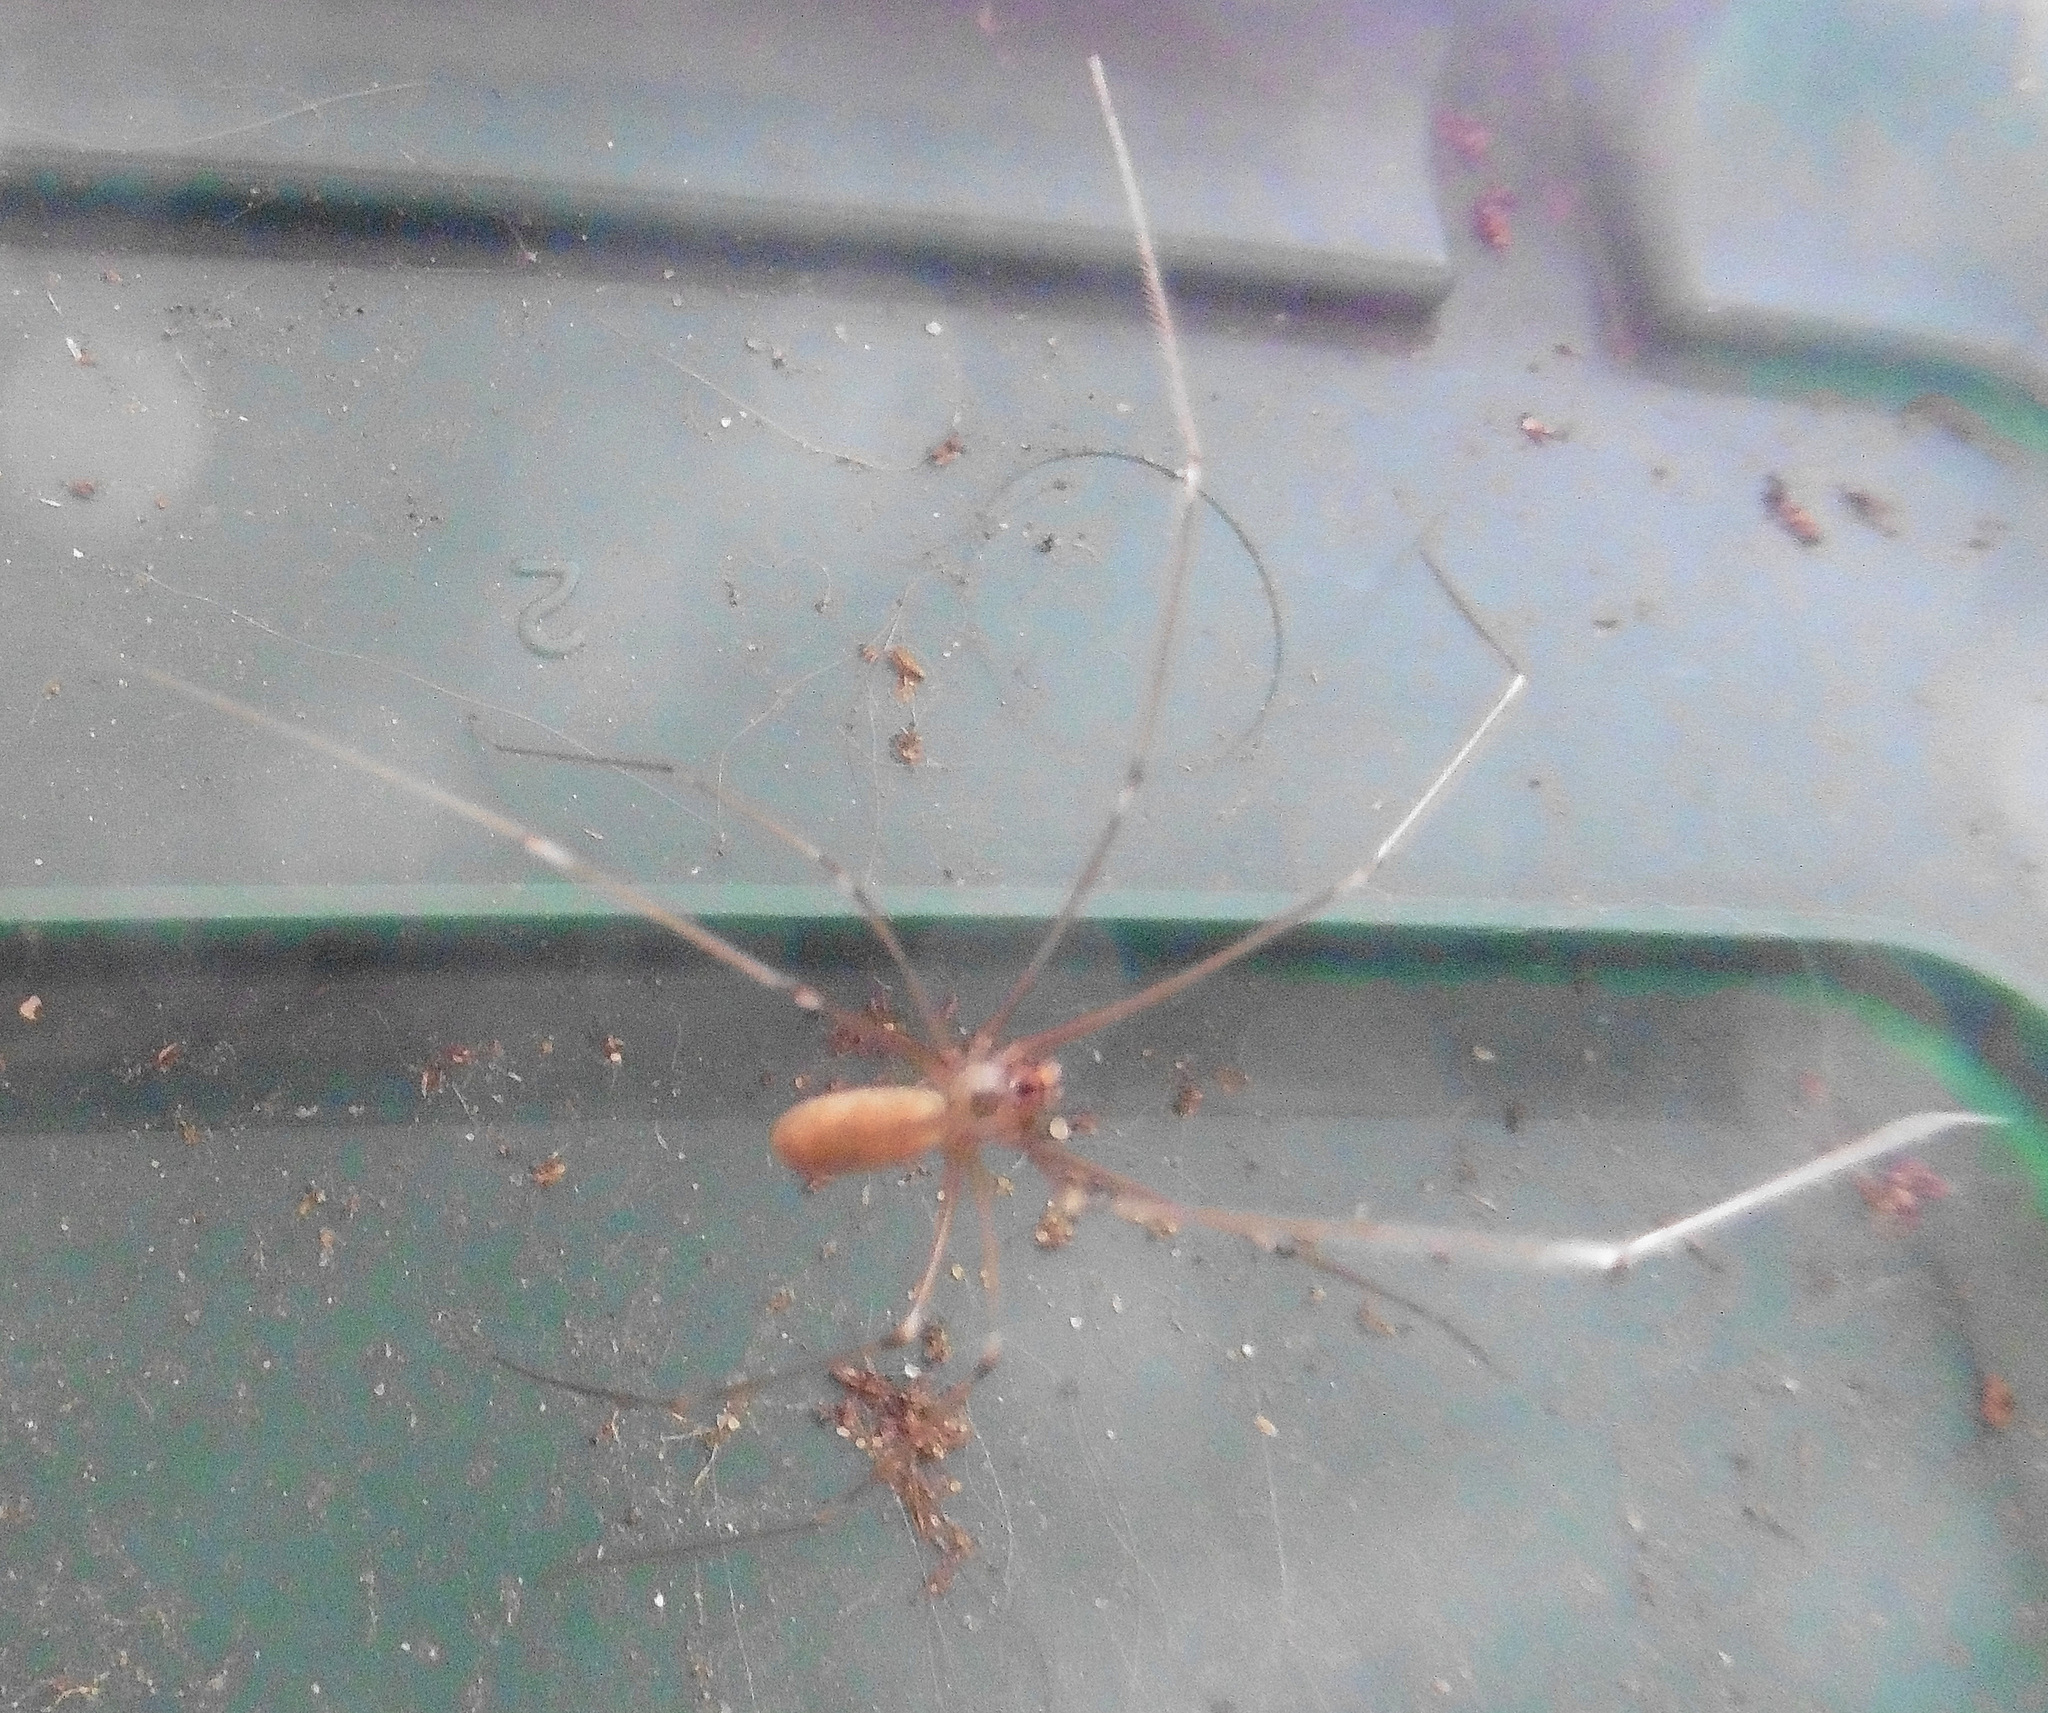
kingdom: Animalia
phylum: Arthropoda
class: Arachnida
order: Araneae
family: Pholcidae
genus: Pholcus
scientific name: Pholcus phalangioides
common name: Longbodied cellar spider
